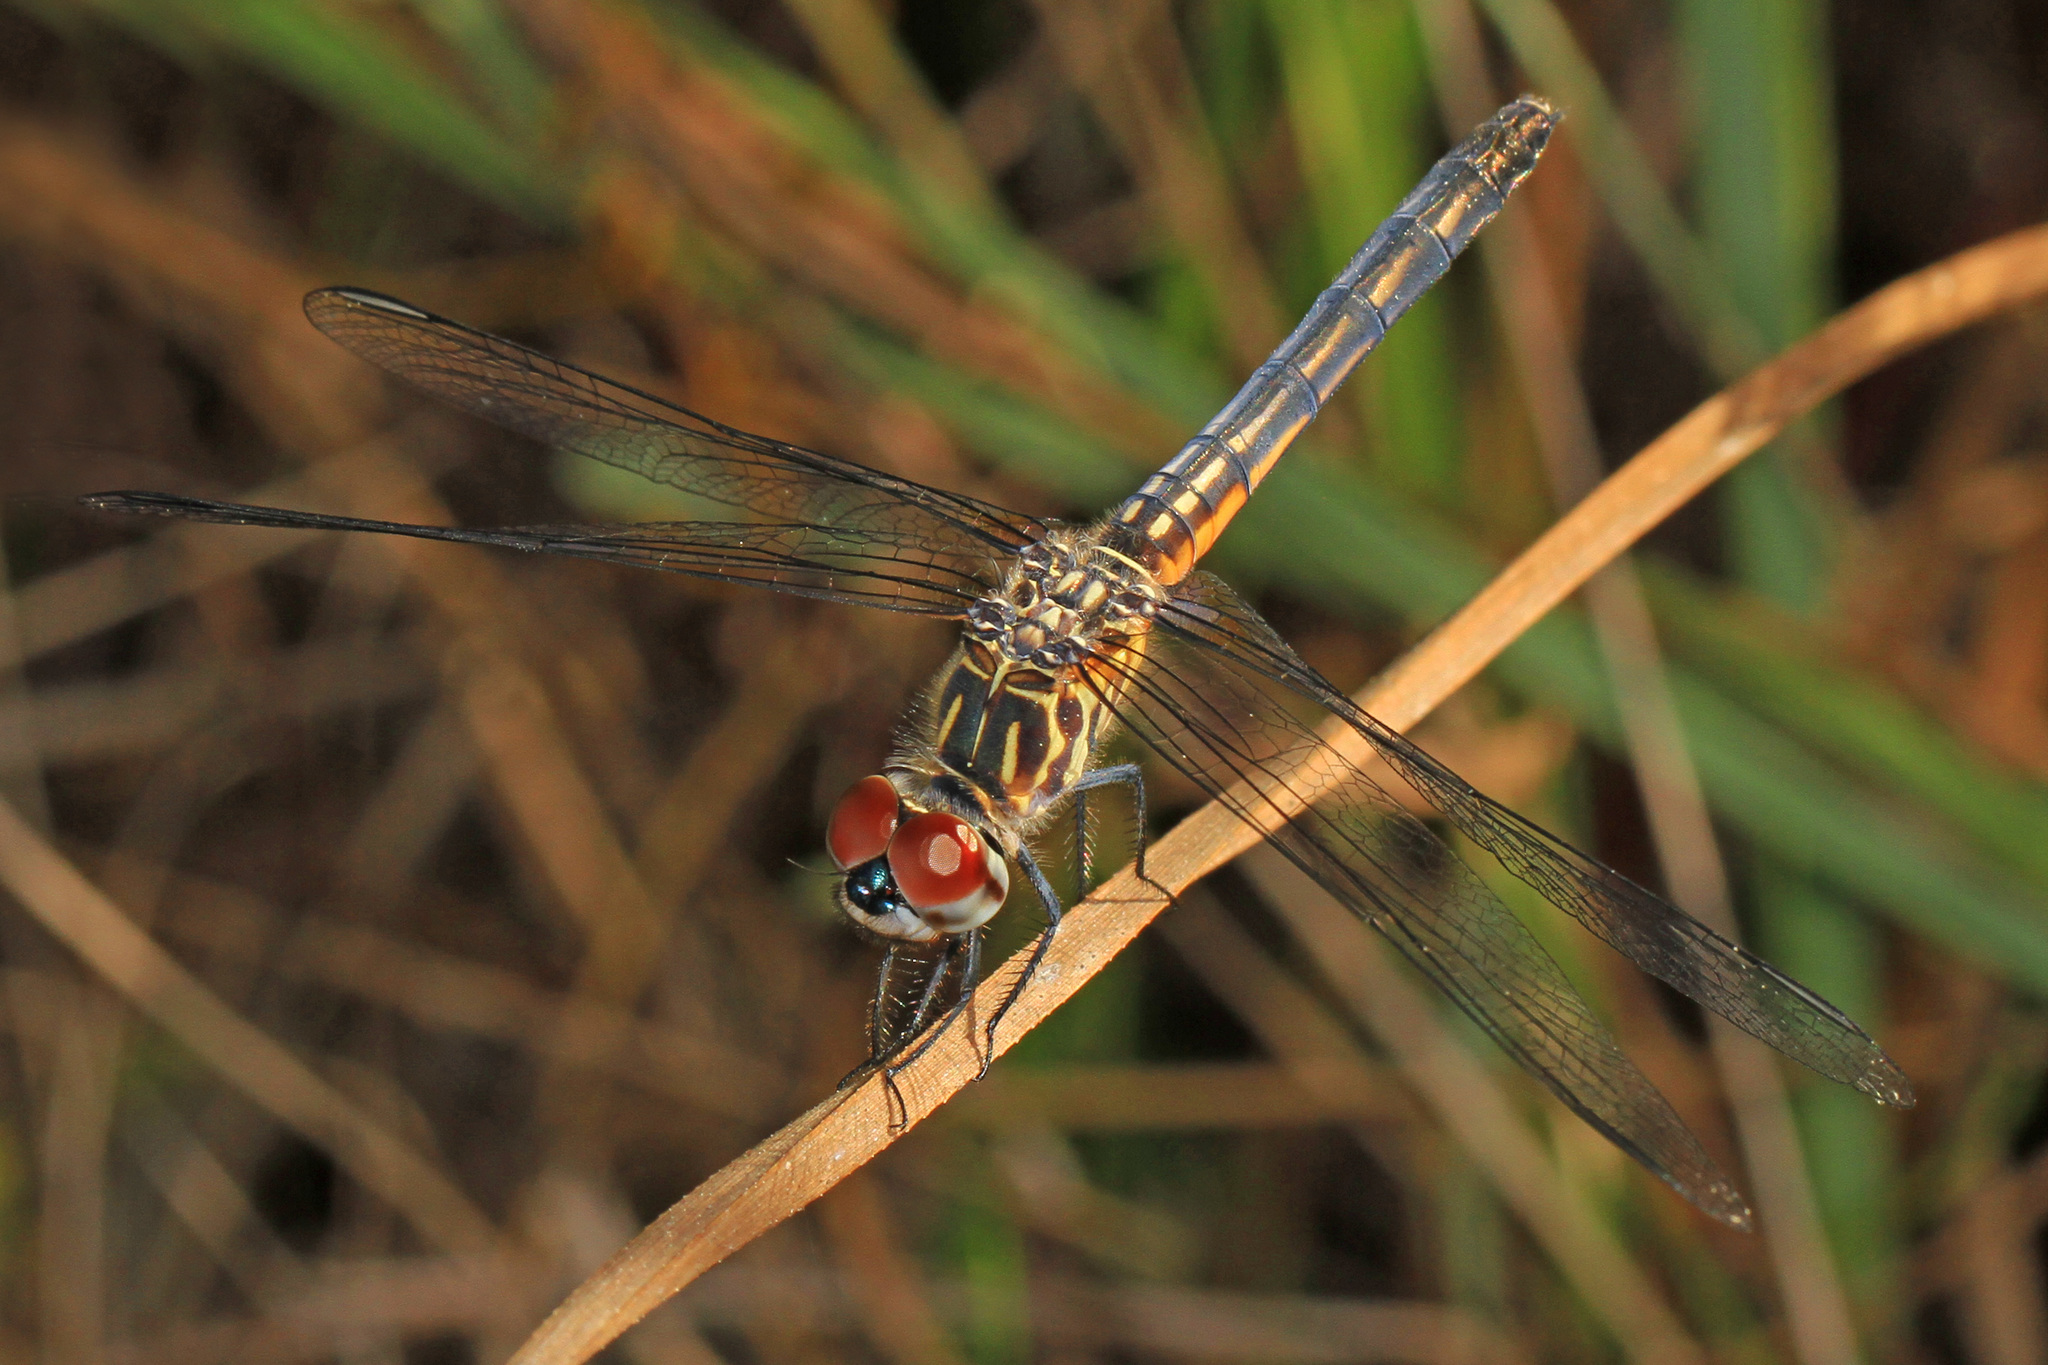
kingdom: Animalia
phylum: Arthropoda
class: Insecta
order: Odonata
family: Libellulidae
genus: Pachydiplax
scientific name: Pachydiplax longipennis
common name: Blue dasher
